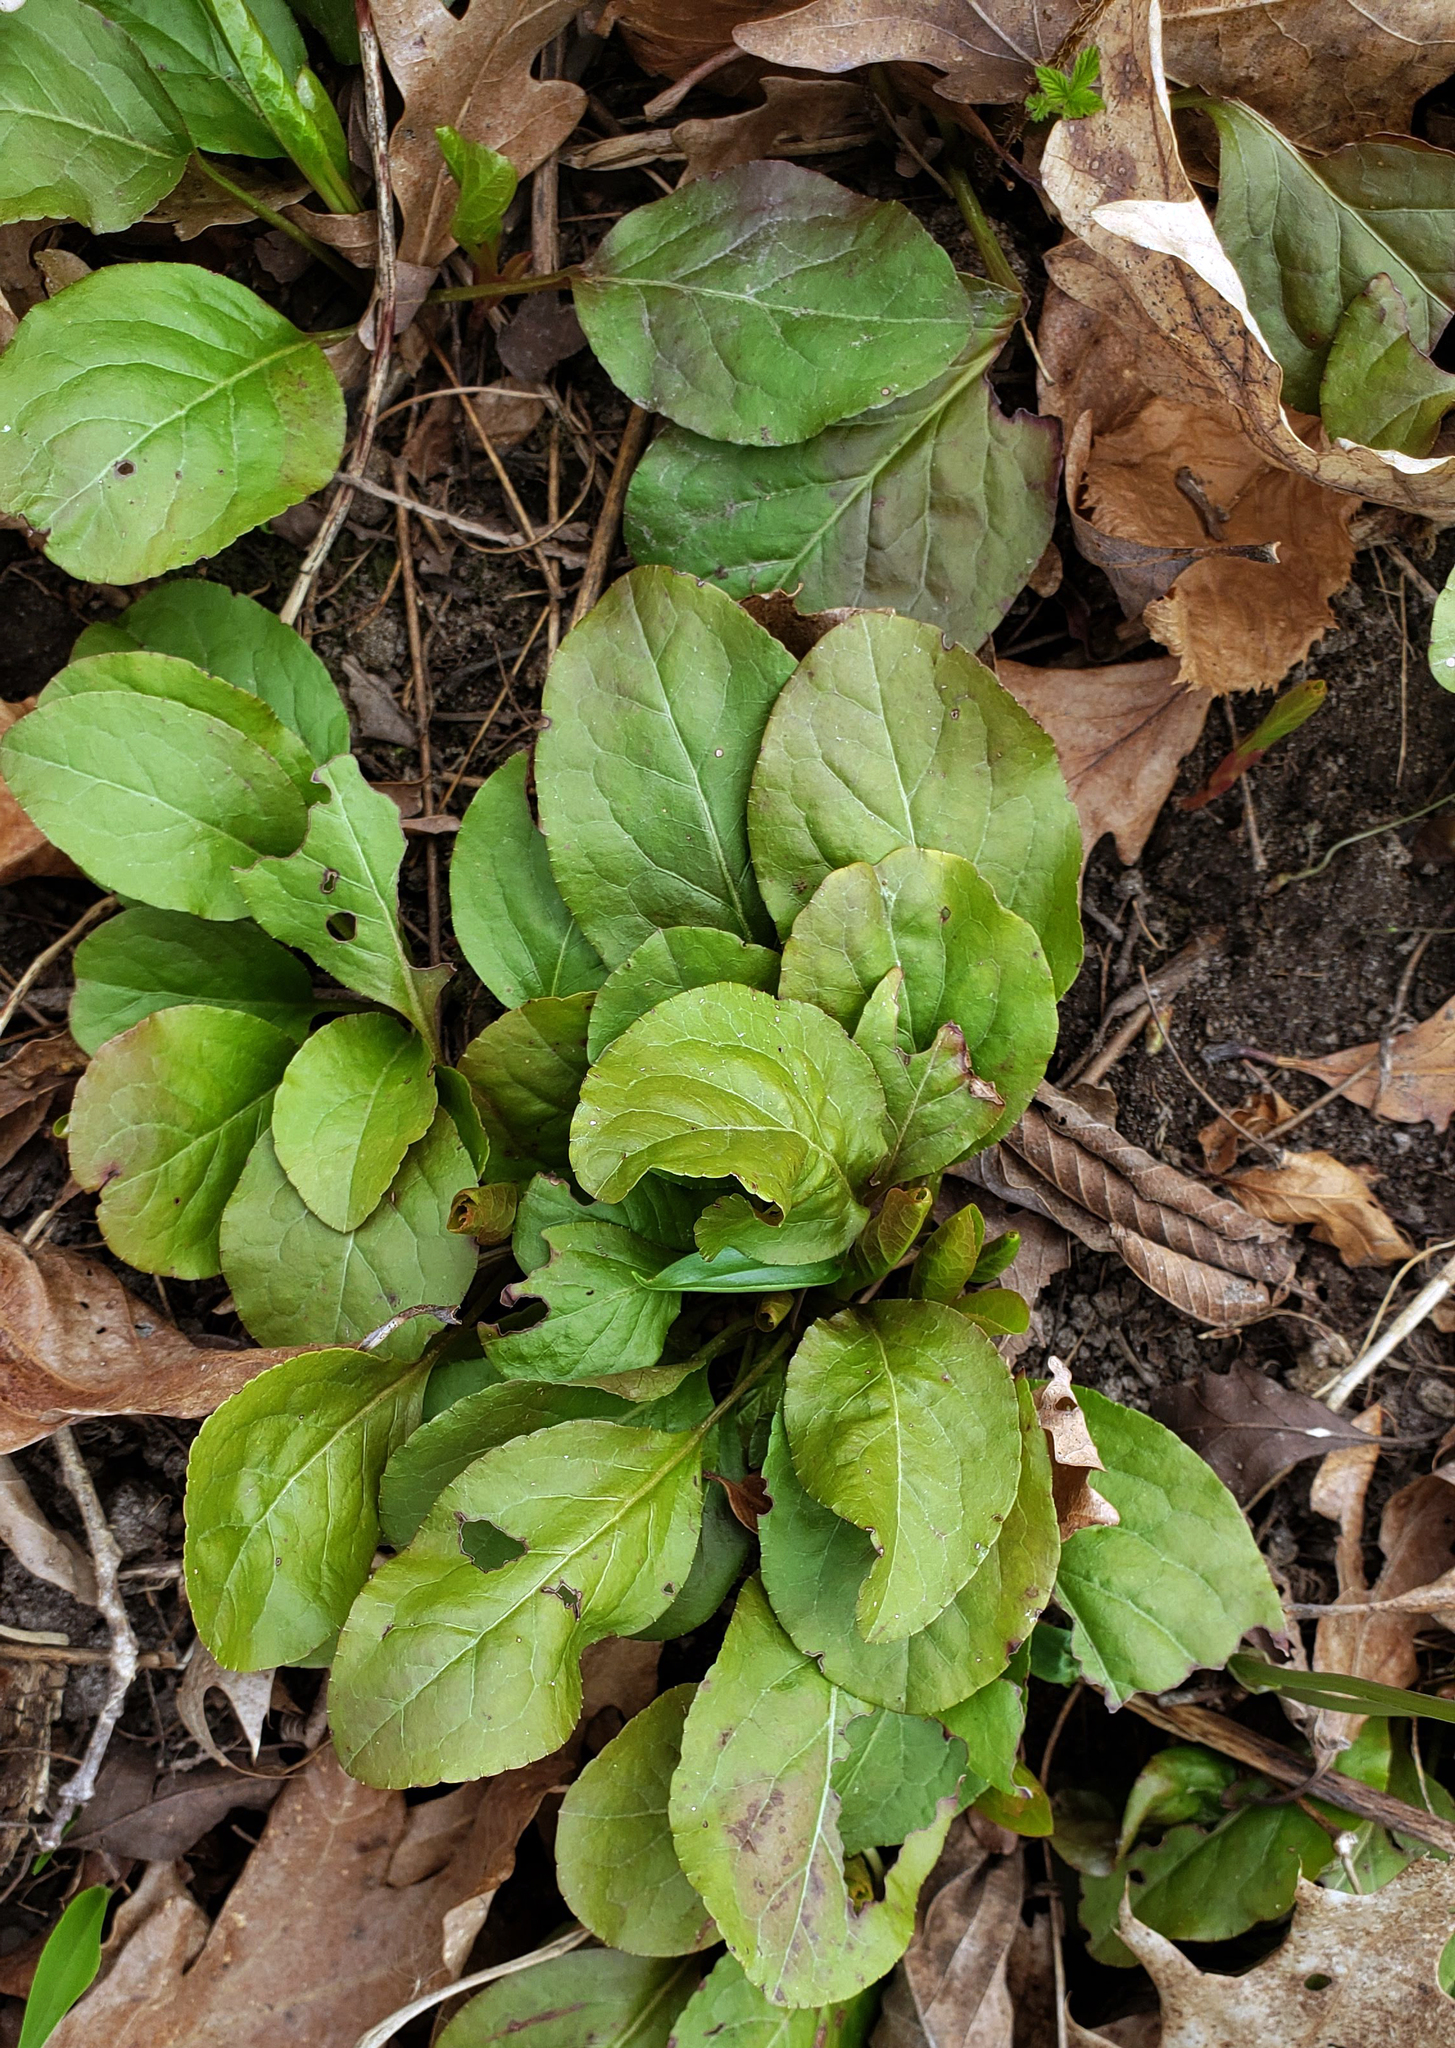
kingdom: Plantae
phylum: Tracheophyta
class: Magnoliopsida
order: Ericales
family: Ericaceae
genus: Pyrola
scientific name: Pyrola elliptica
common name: Shinleaf
